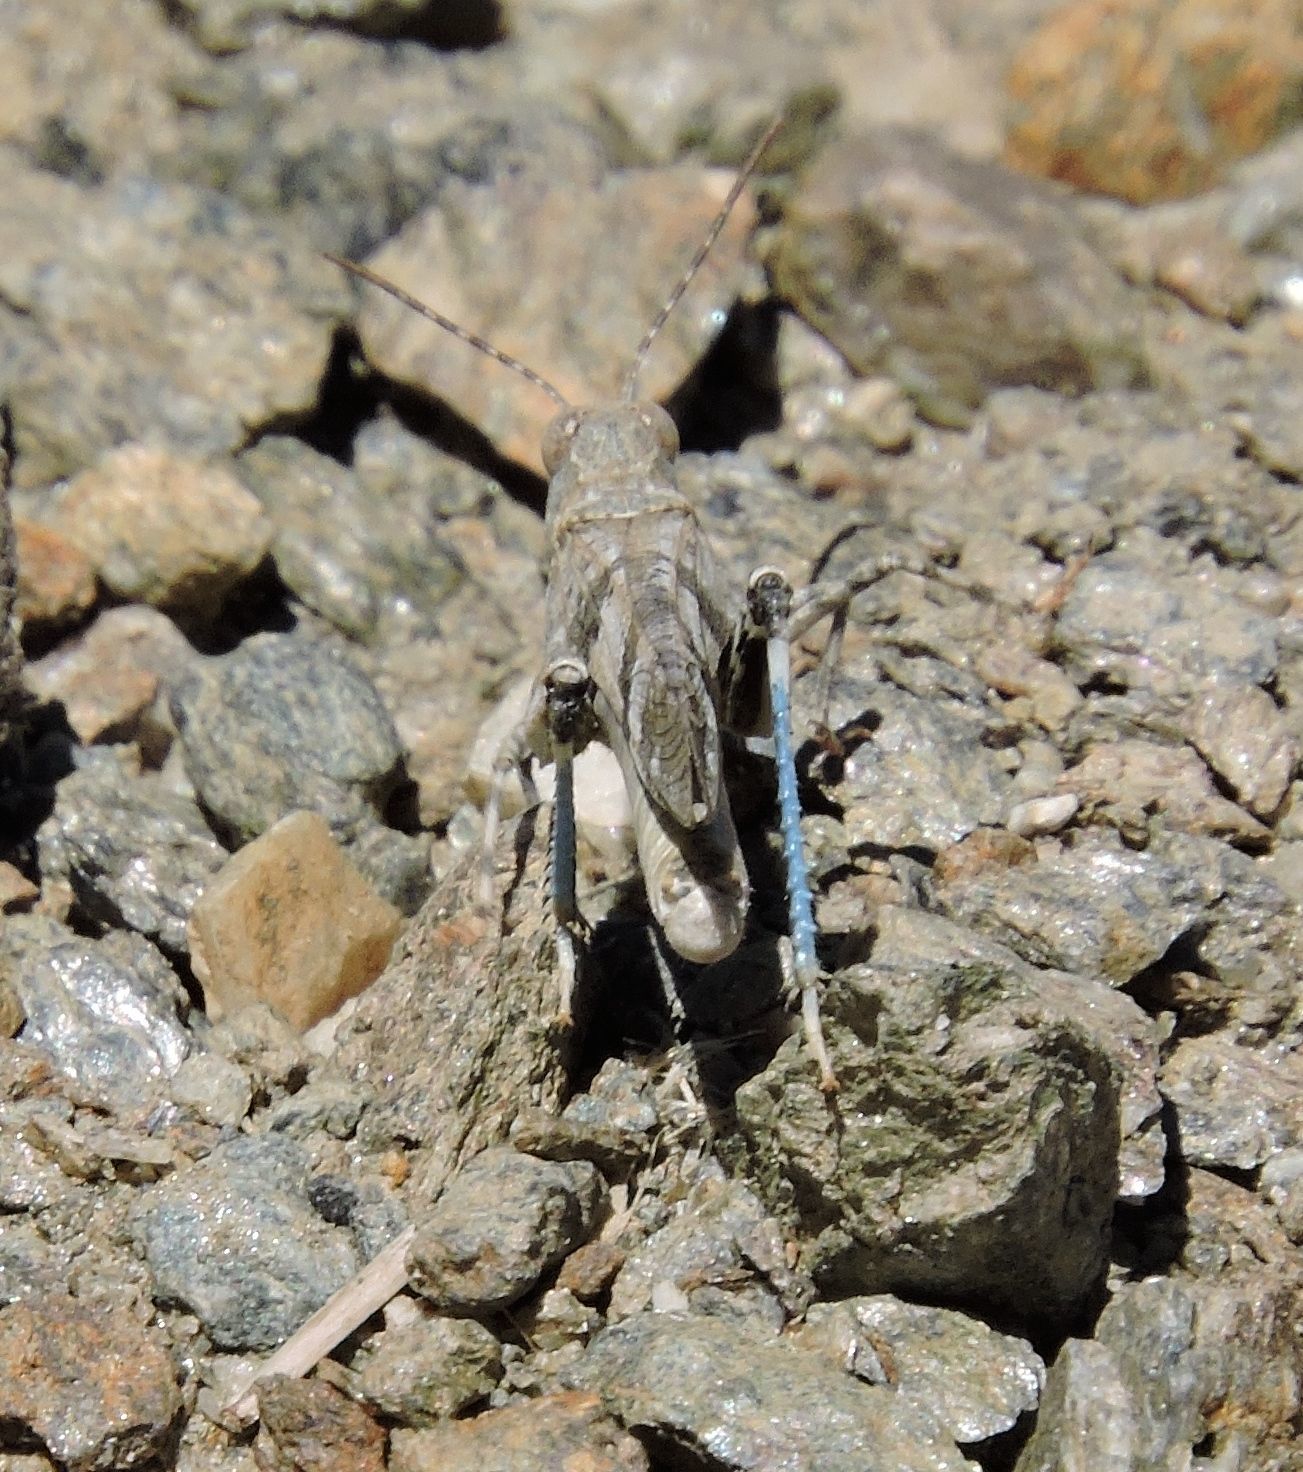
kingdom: Animalia
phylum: Arthropoda
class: Insecta
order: Orthoptera
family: Acrididae
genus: Trimerotropis
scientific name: Trimerotropis fontana
